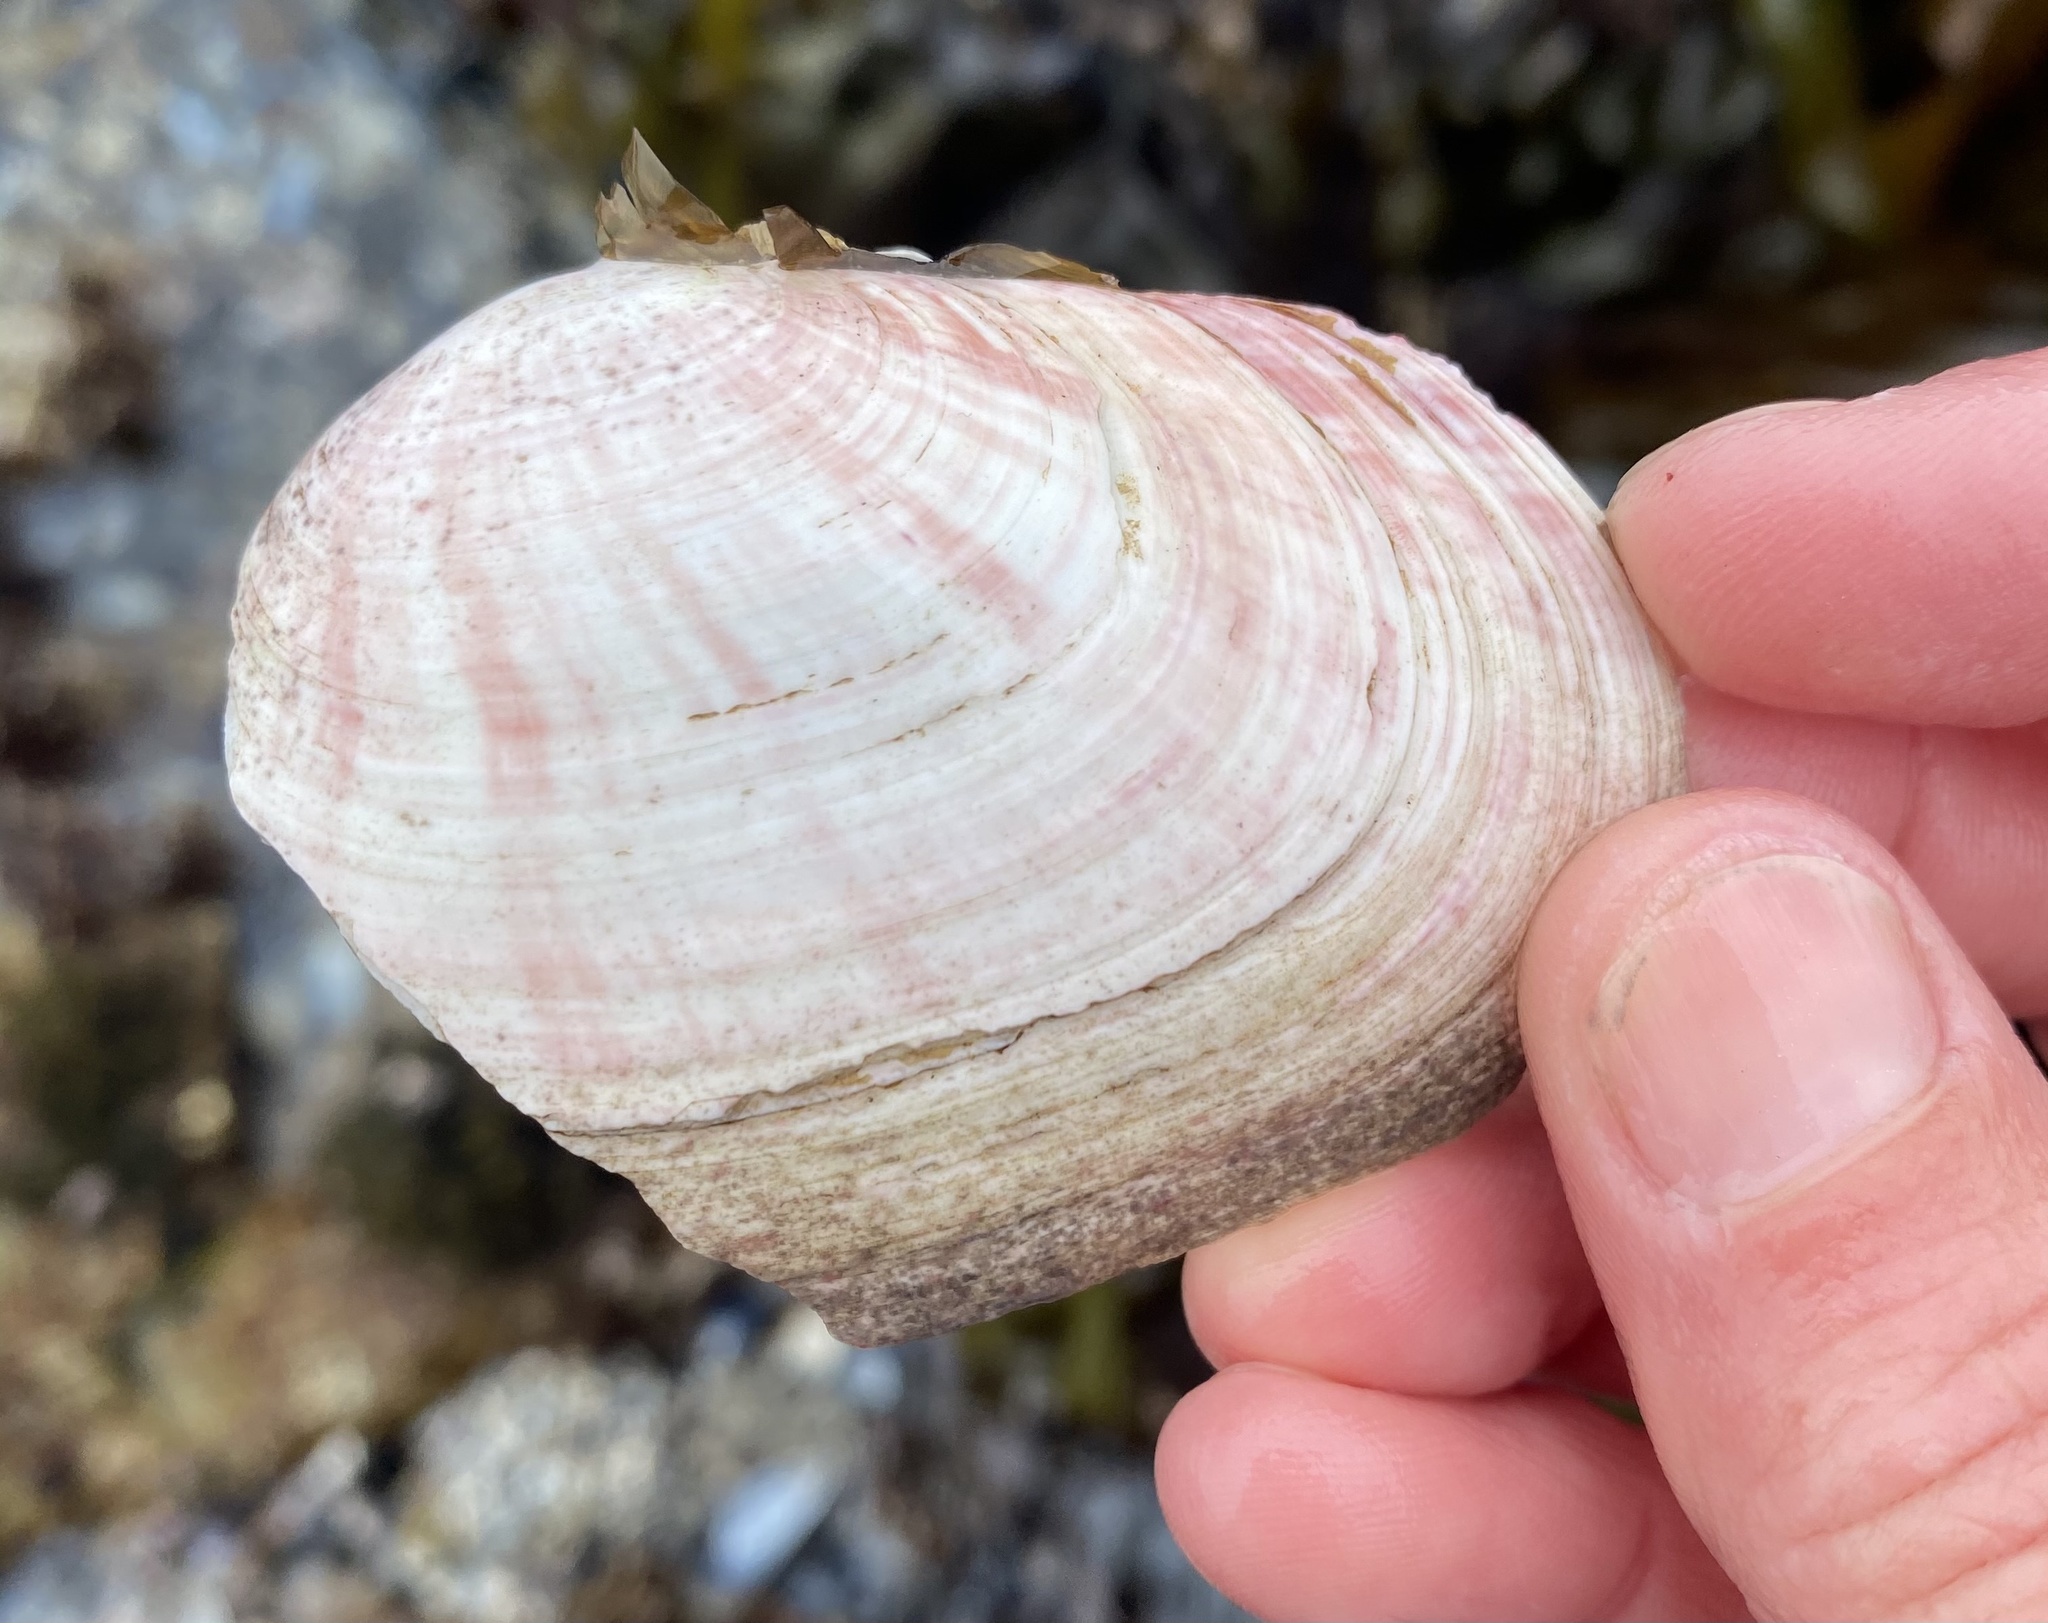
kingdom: Animalia
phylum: Mollusca
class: Bivalvia
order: Cardiida
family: Psammobiidae
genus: Gari
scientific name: Gari californica
